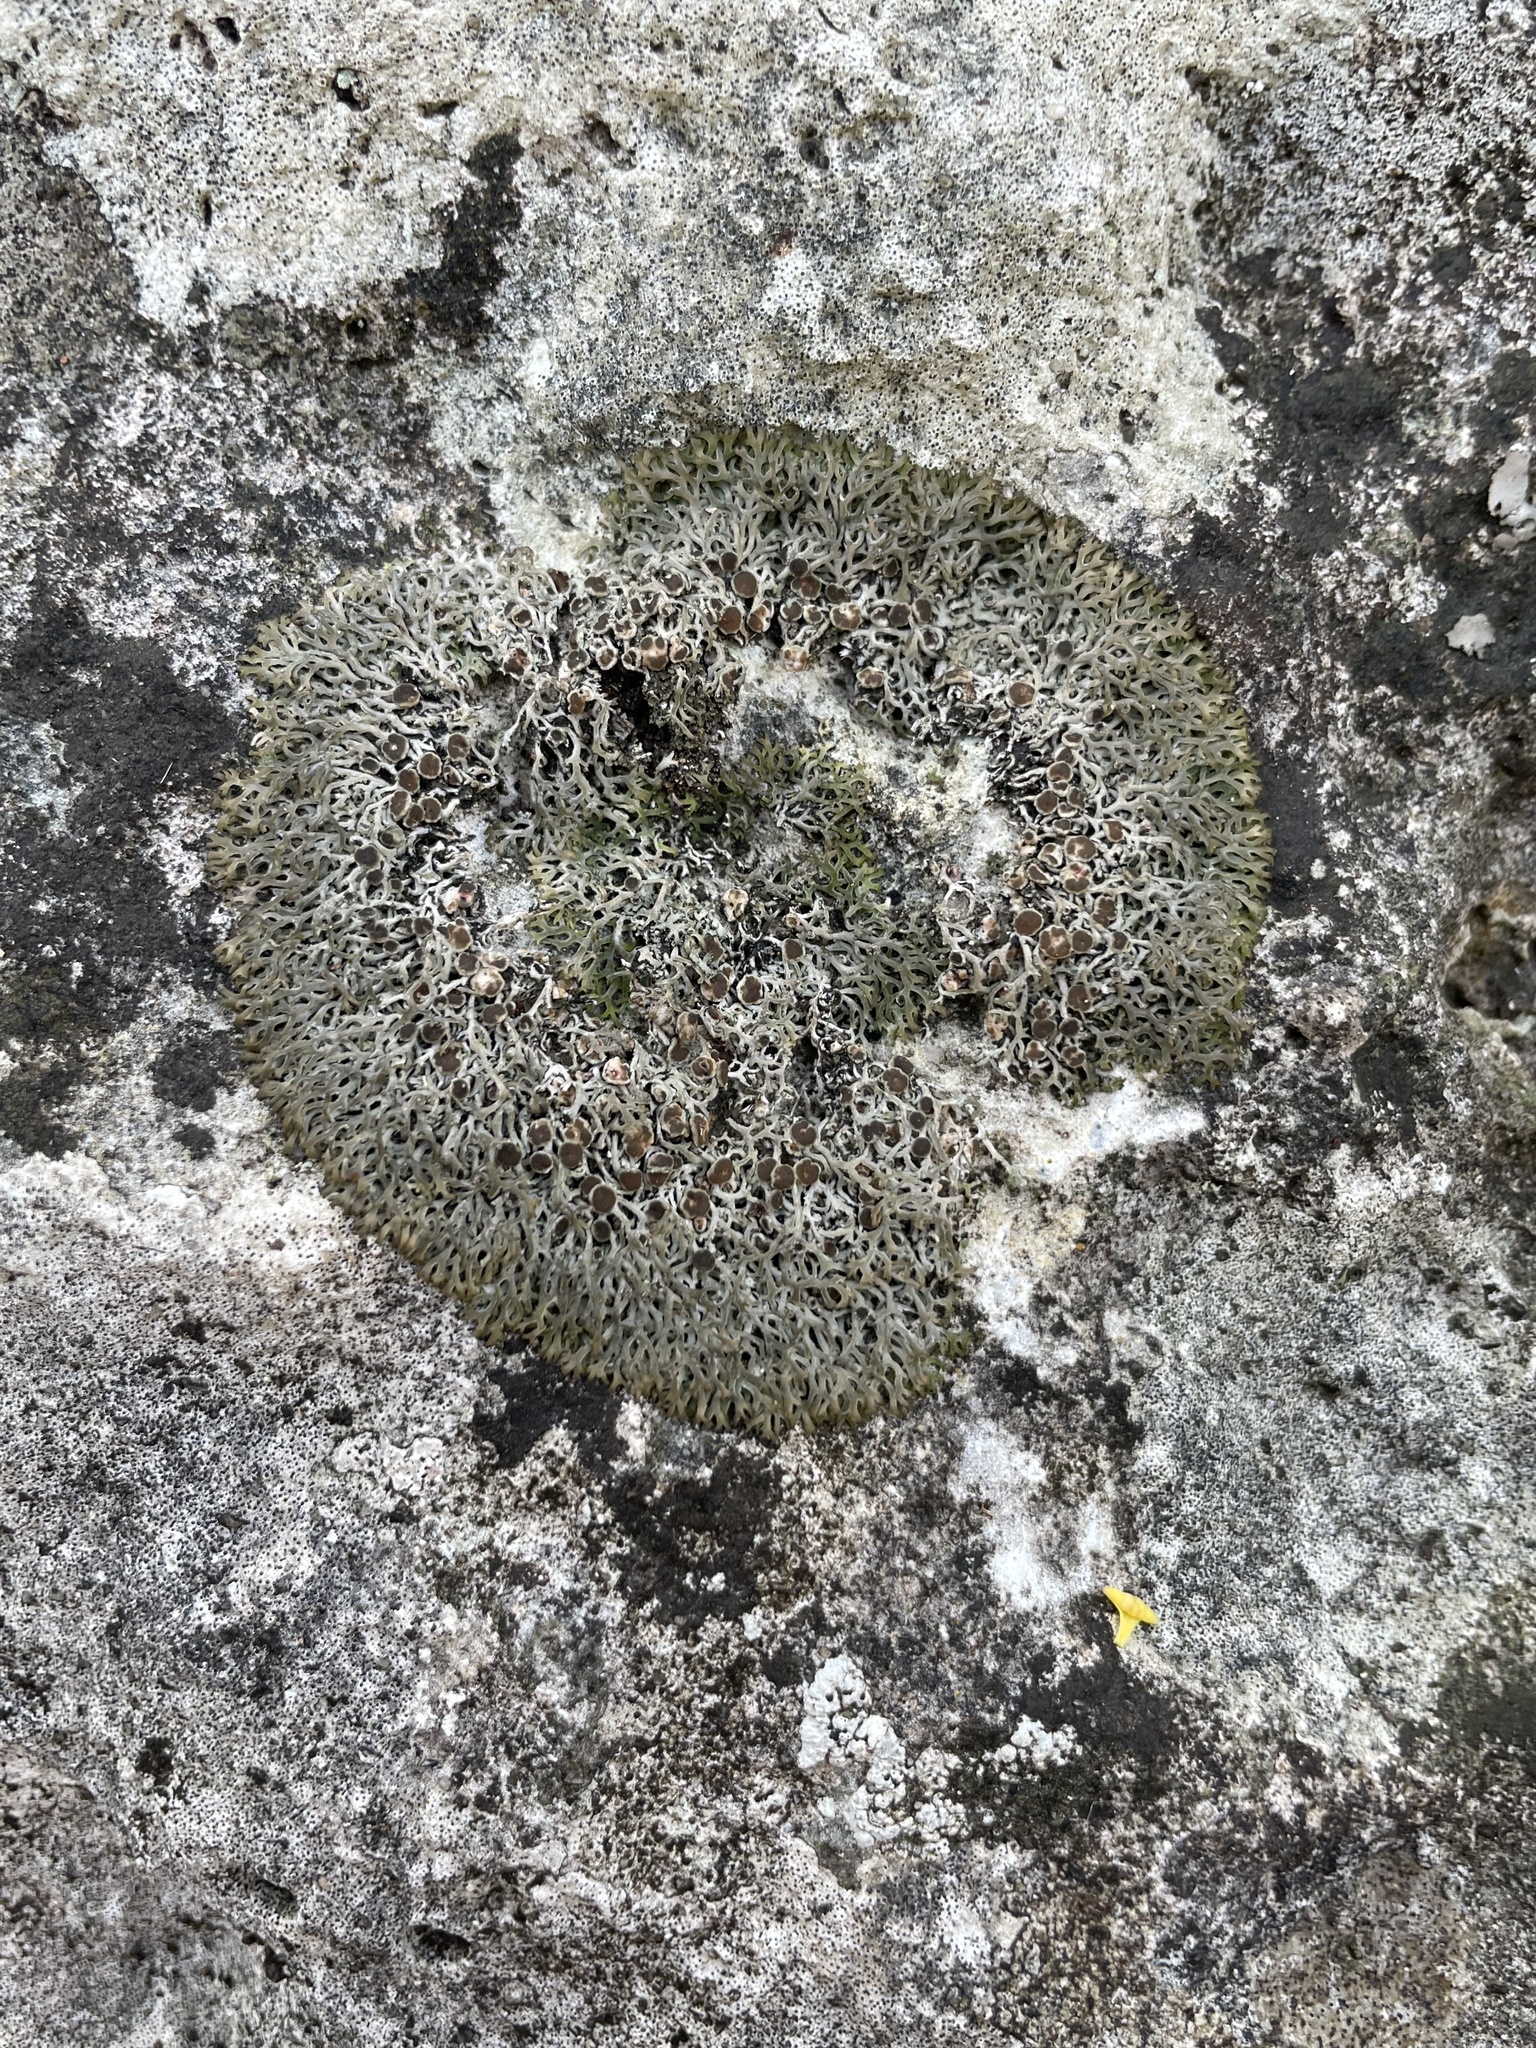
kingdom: Fungi
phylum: Ascomycota
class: Lecanoromycetes
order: Teloschistales
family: Leprocaulaceae
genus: Speerschneidera
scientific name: Speerschneidera euploca
